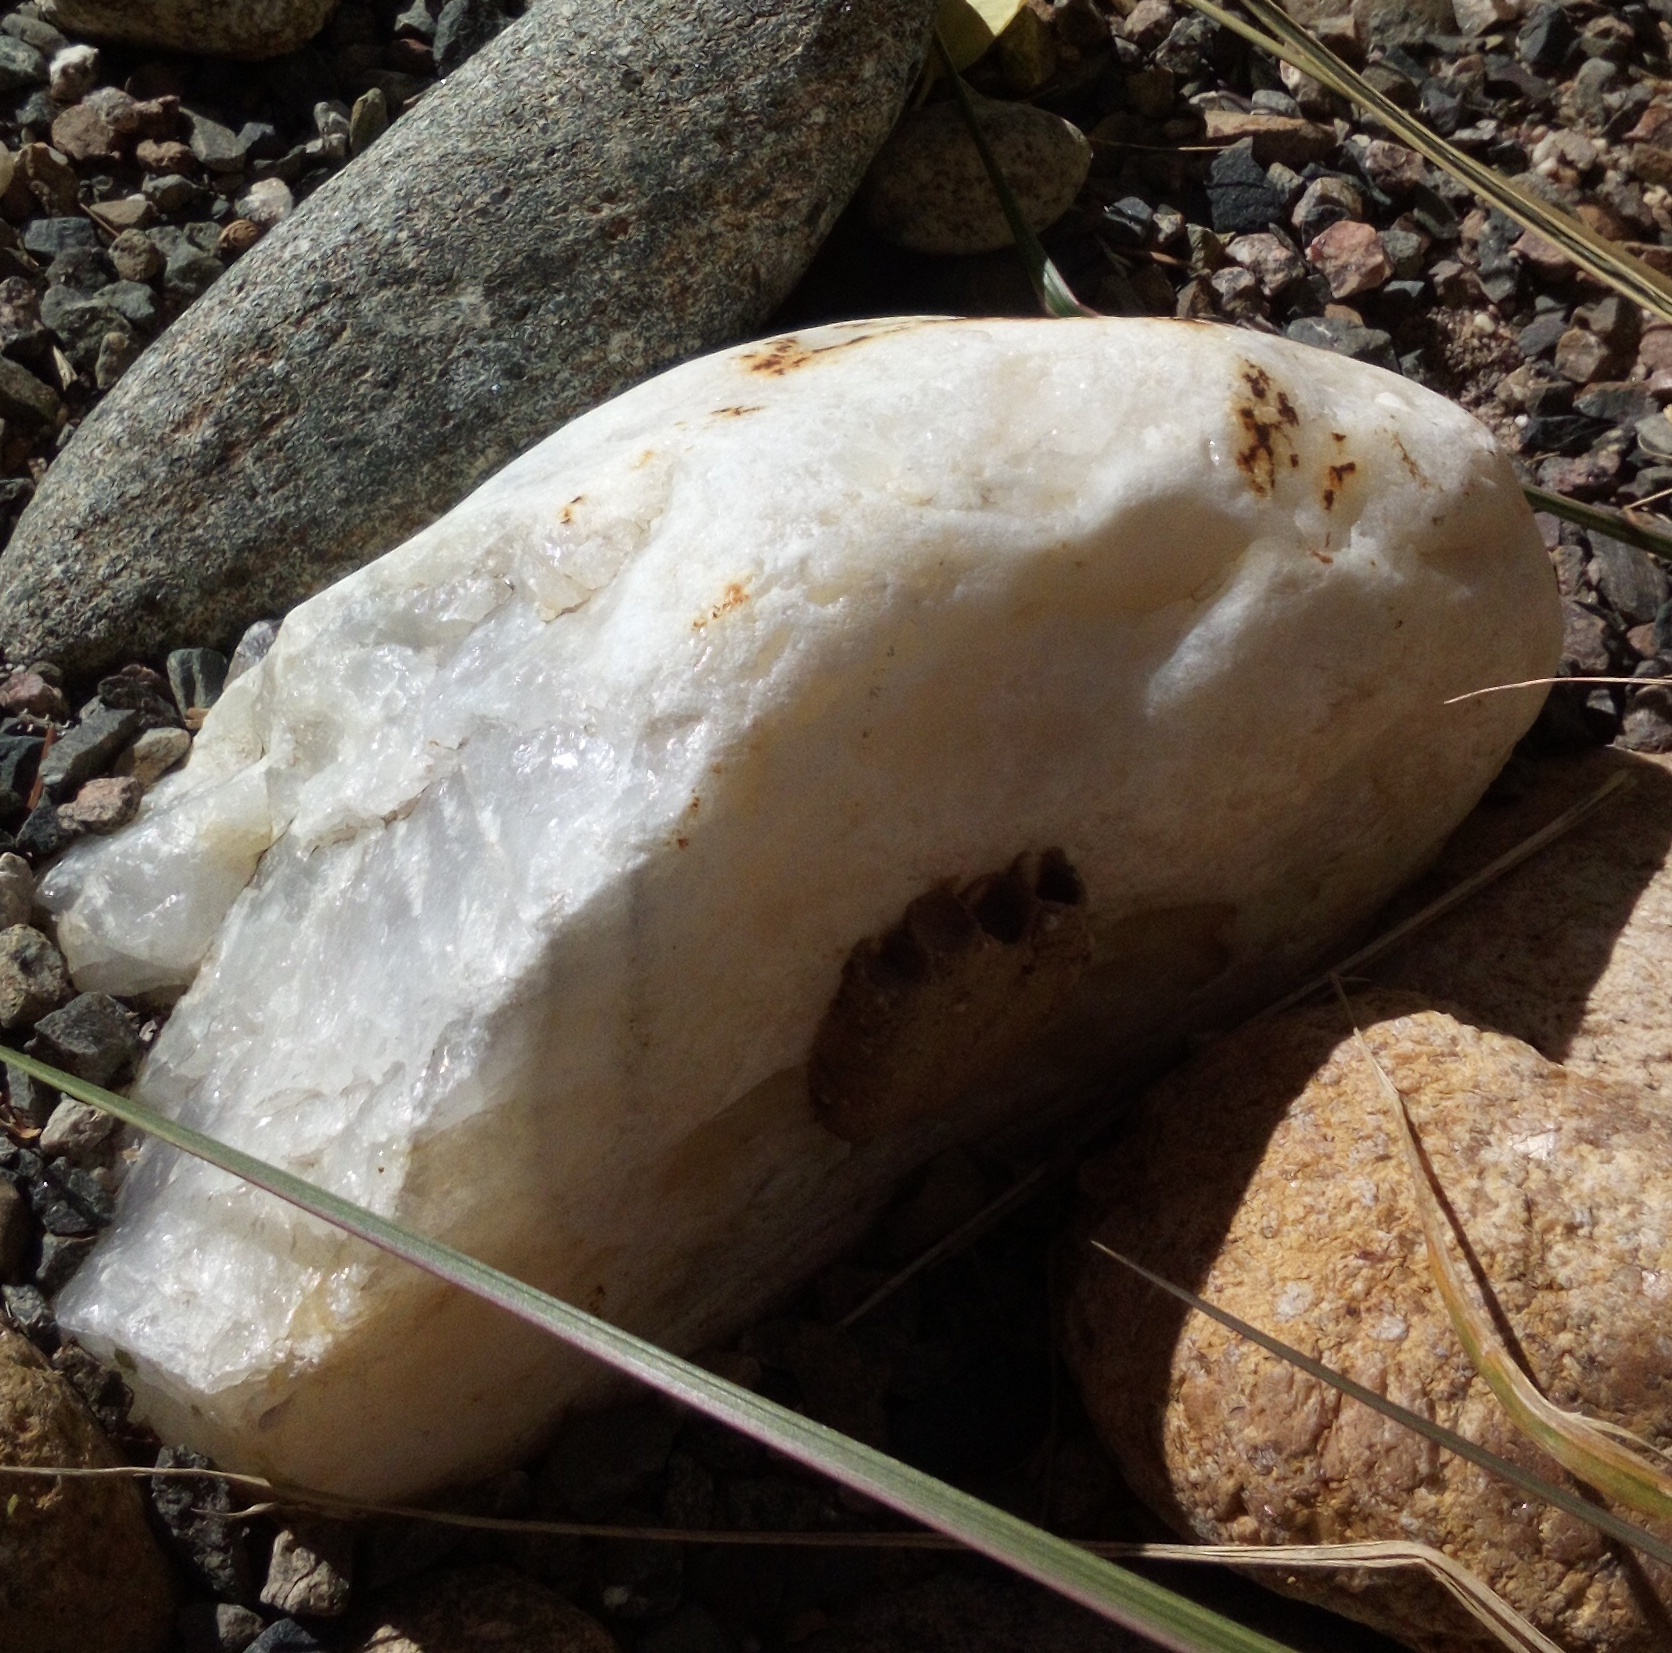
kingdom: Animalia
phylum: Arthropoda
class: Insecta
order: Hymenoptera
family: Masaridae
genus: Pseudomasaris
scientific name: Pseudomasaris
